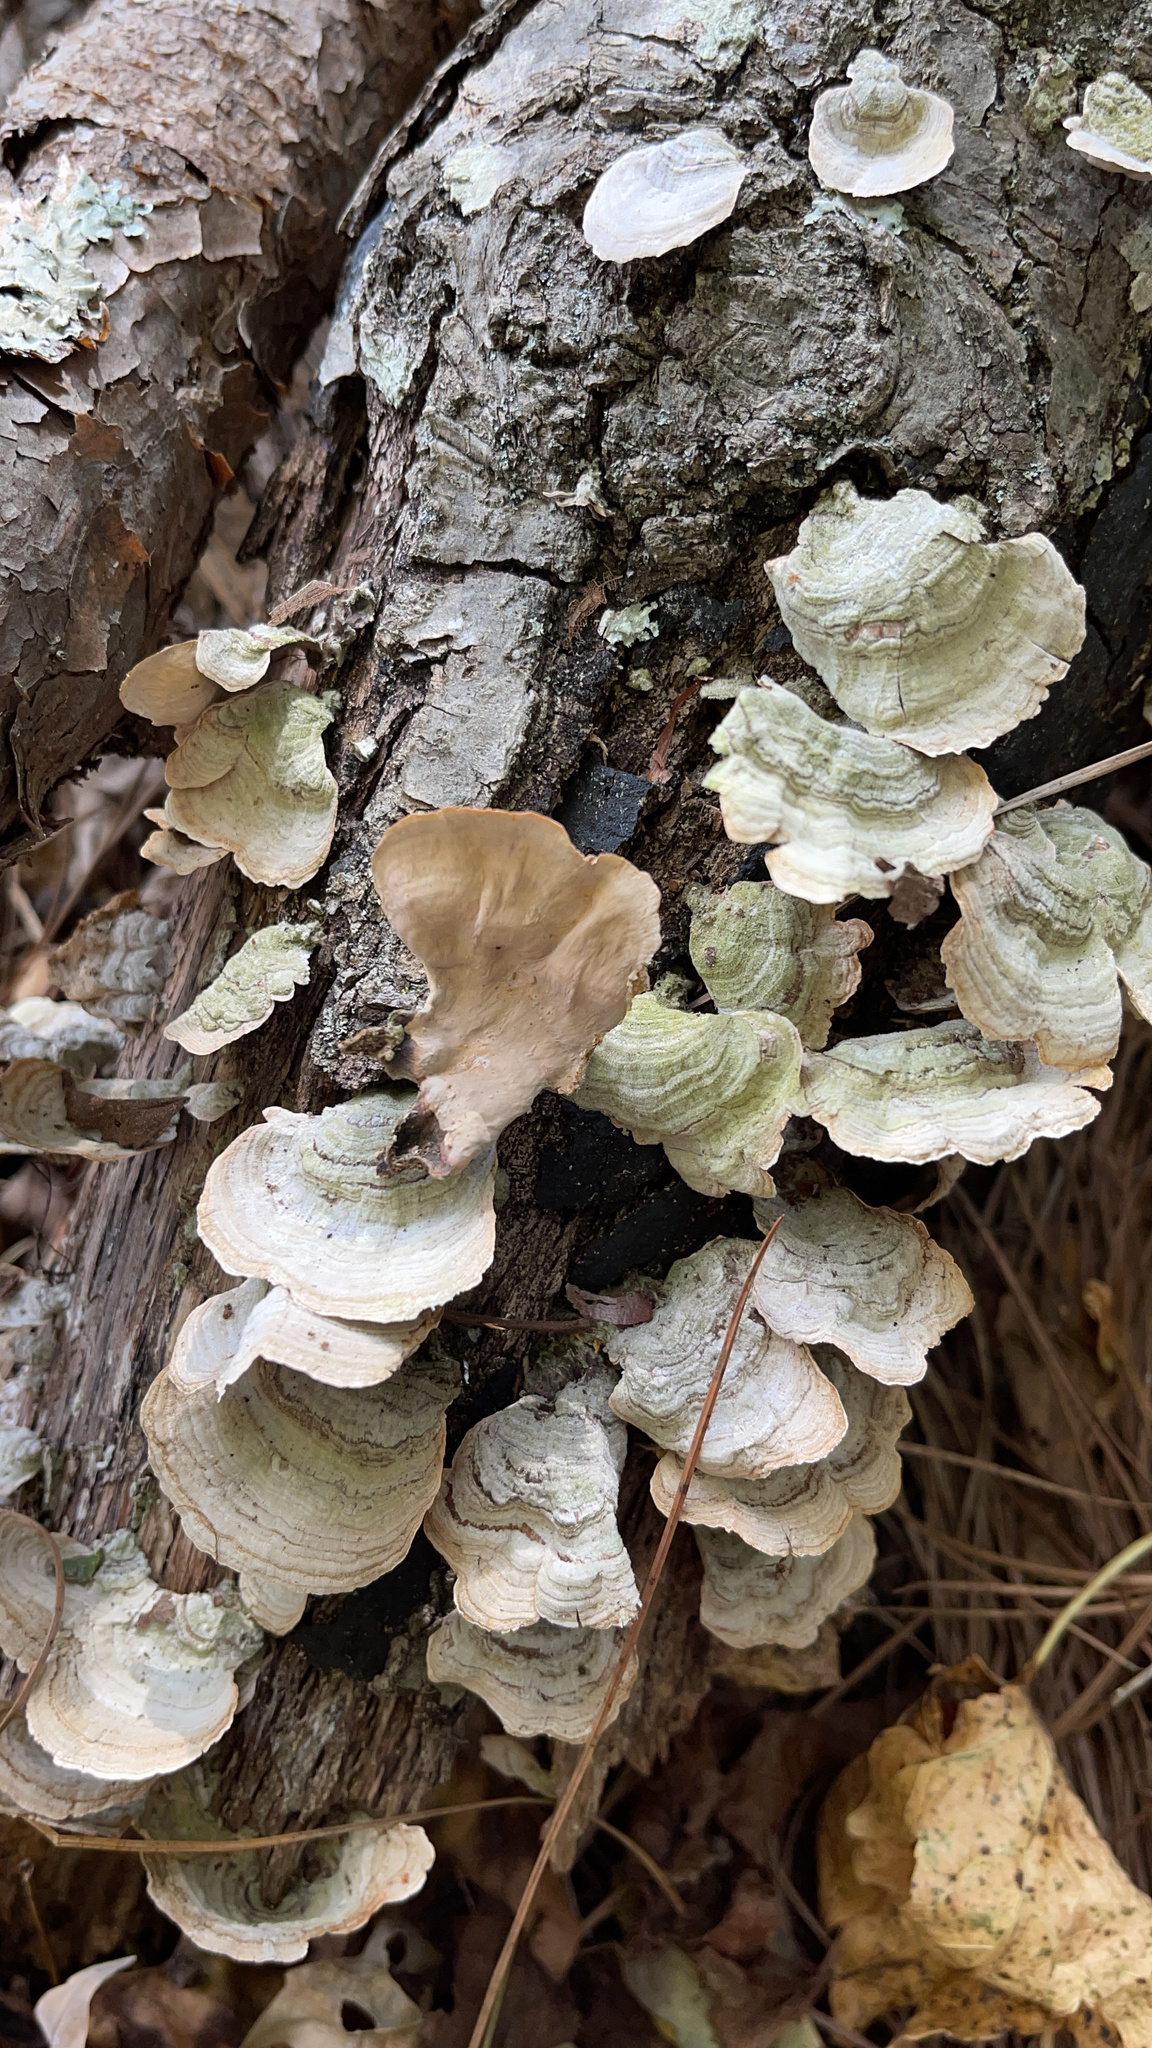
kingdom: Fungi
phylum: Basidiomycota
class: Agaricomycetes
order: Russulales
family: Stereaceae
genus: Stereum
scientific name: Stereum ostrea
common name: False turkeytail
